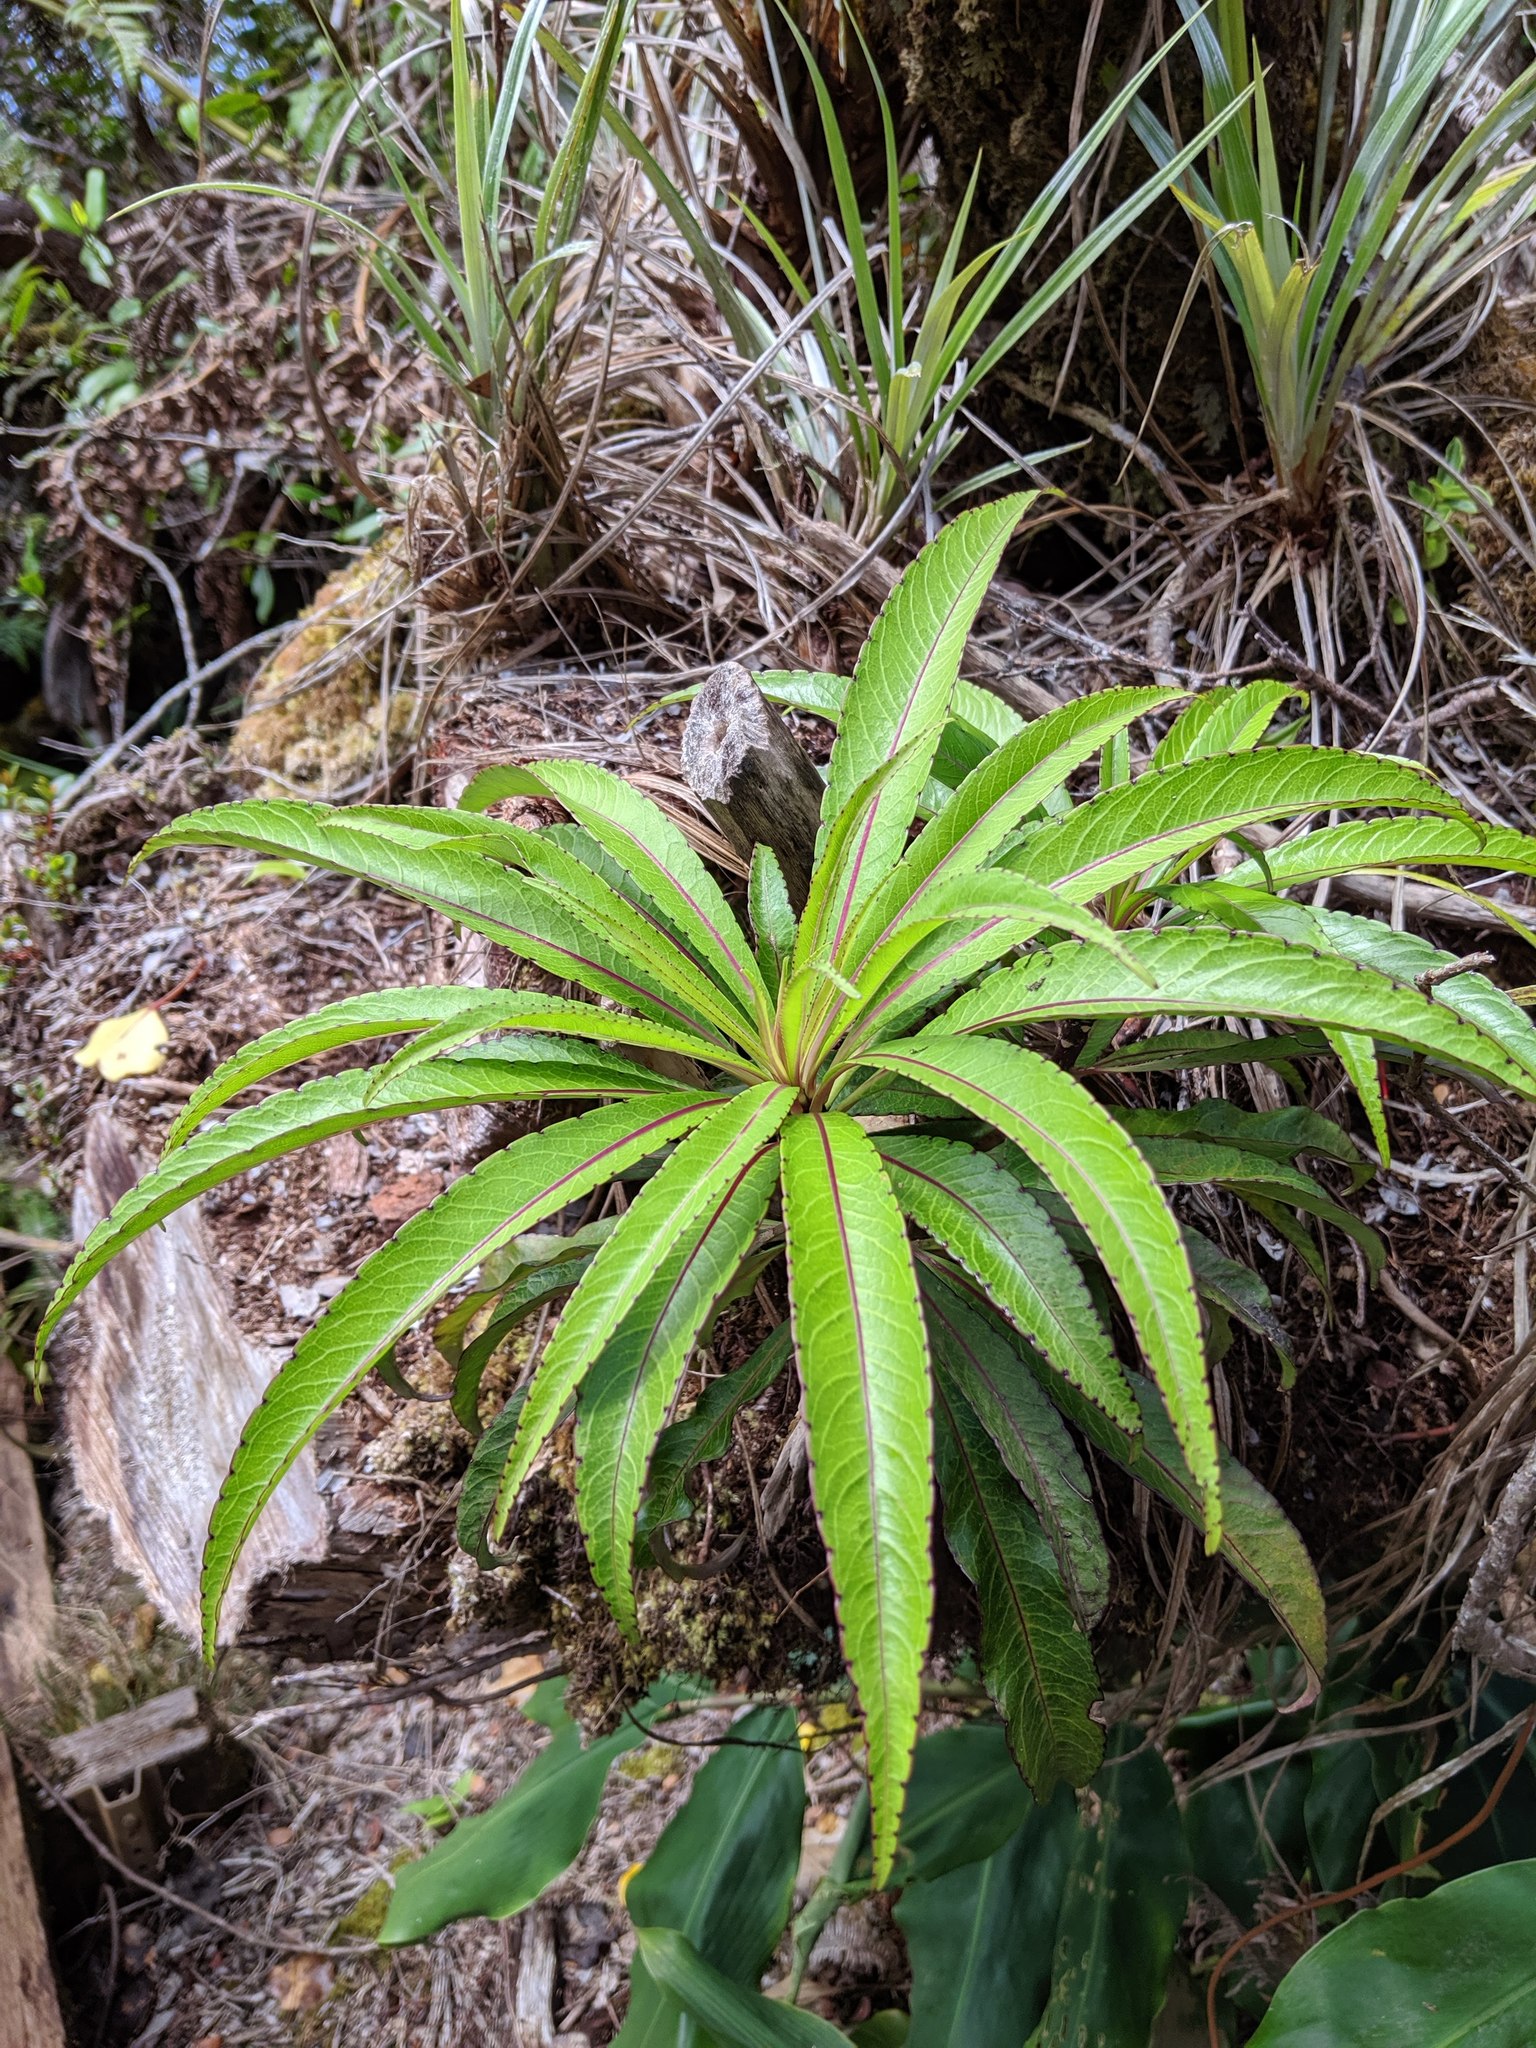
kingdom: Plantae
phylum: Tracheophyta
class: Magnoliopsida
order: Asterales
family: Campanulaceae
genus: Trematolobelia
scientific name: Trematolobelia kauaiensis
